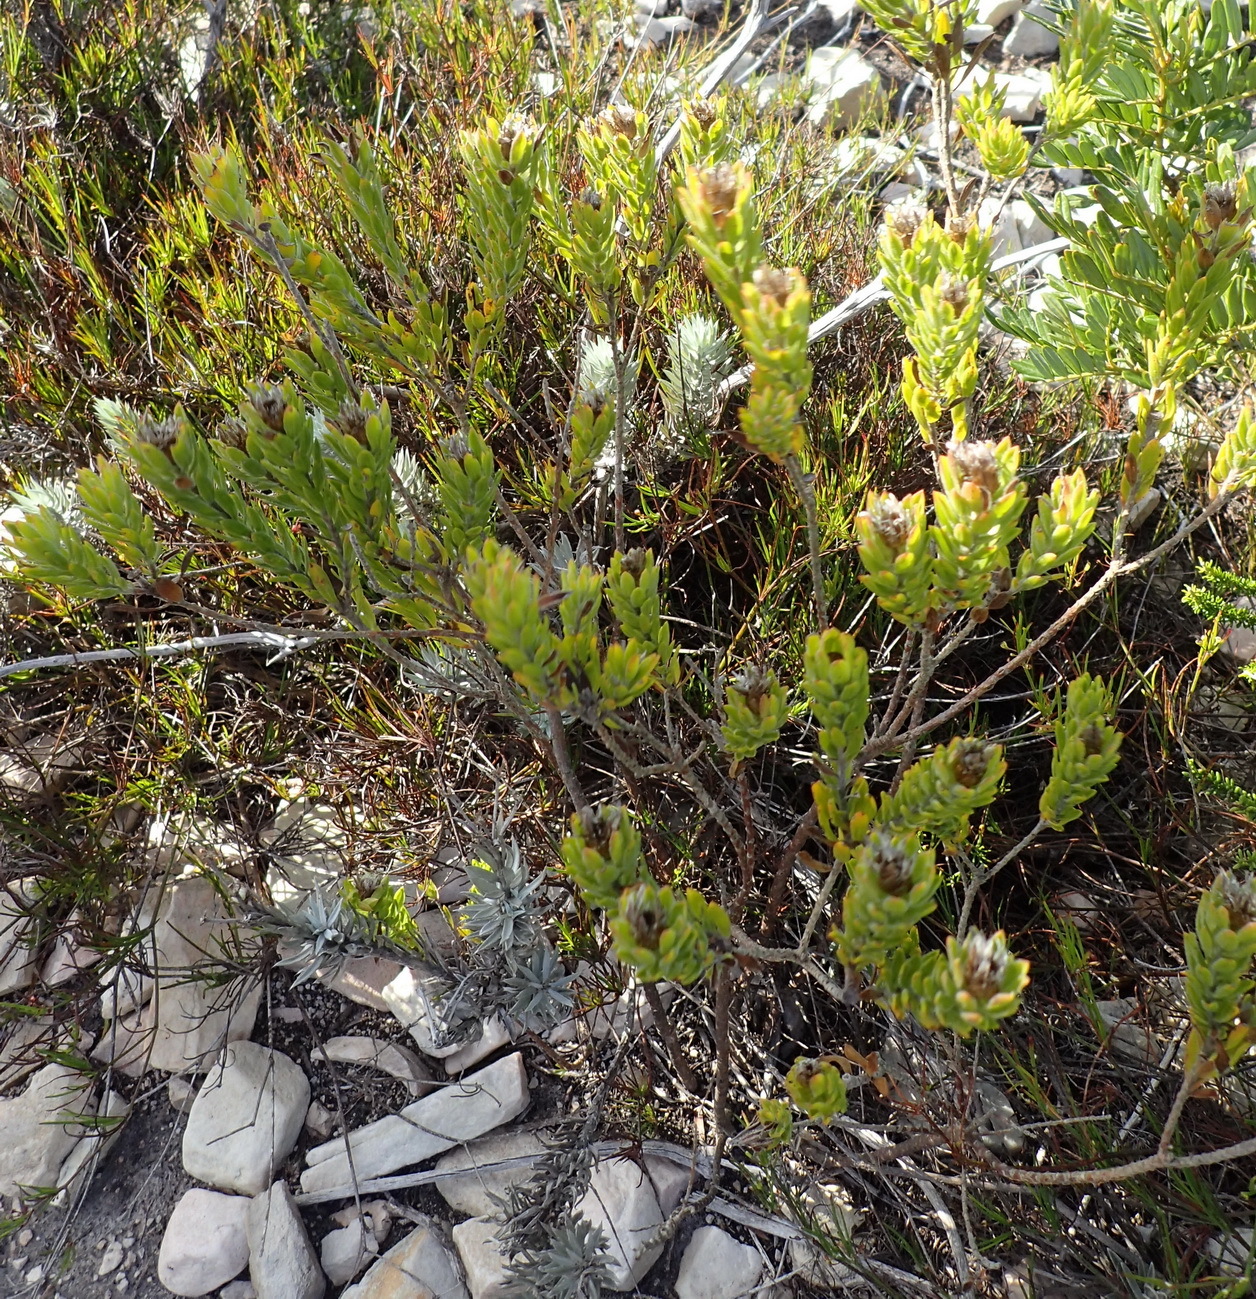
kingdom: Plantae
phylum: Tracheophyta
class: Magnoliopsida
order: Asterales
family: Asteraceae
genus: Oedera
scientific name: Oedera calycina
